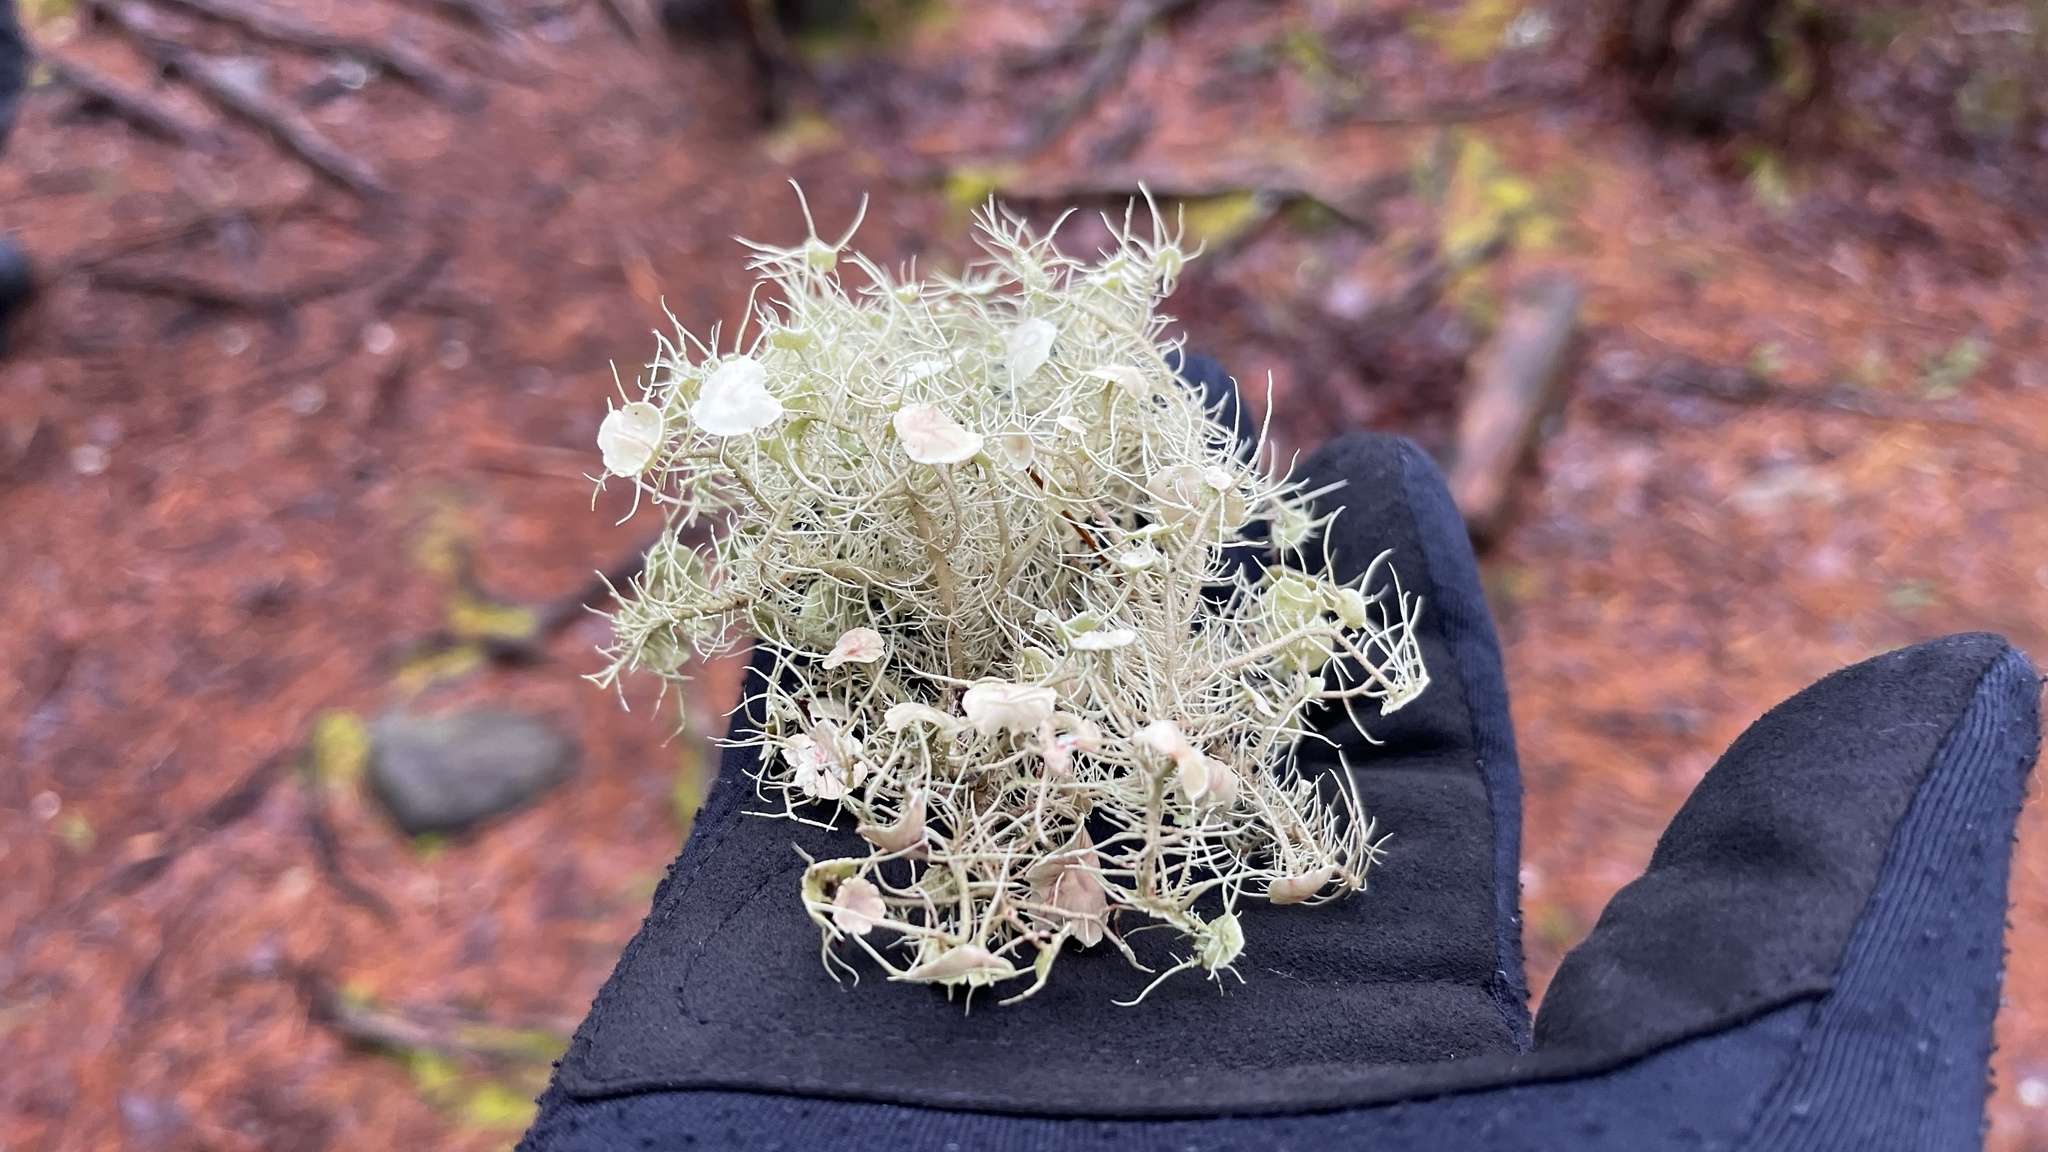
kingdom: Fungi
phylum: Ascomycota
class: Lecanoromycetes
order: Lecanorales
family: Parmeliaceae
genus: Usnea
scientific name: Usnea strigosa
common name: Bushy beard lichen
